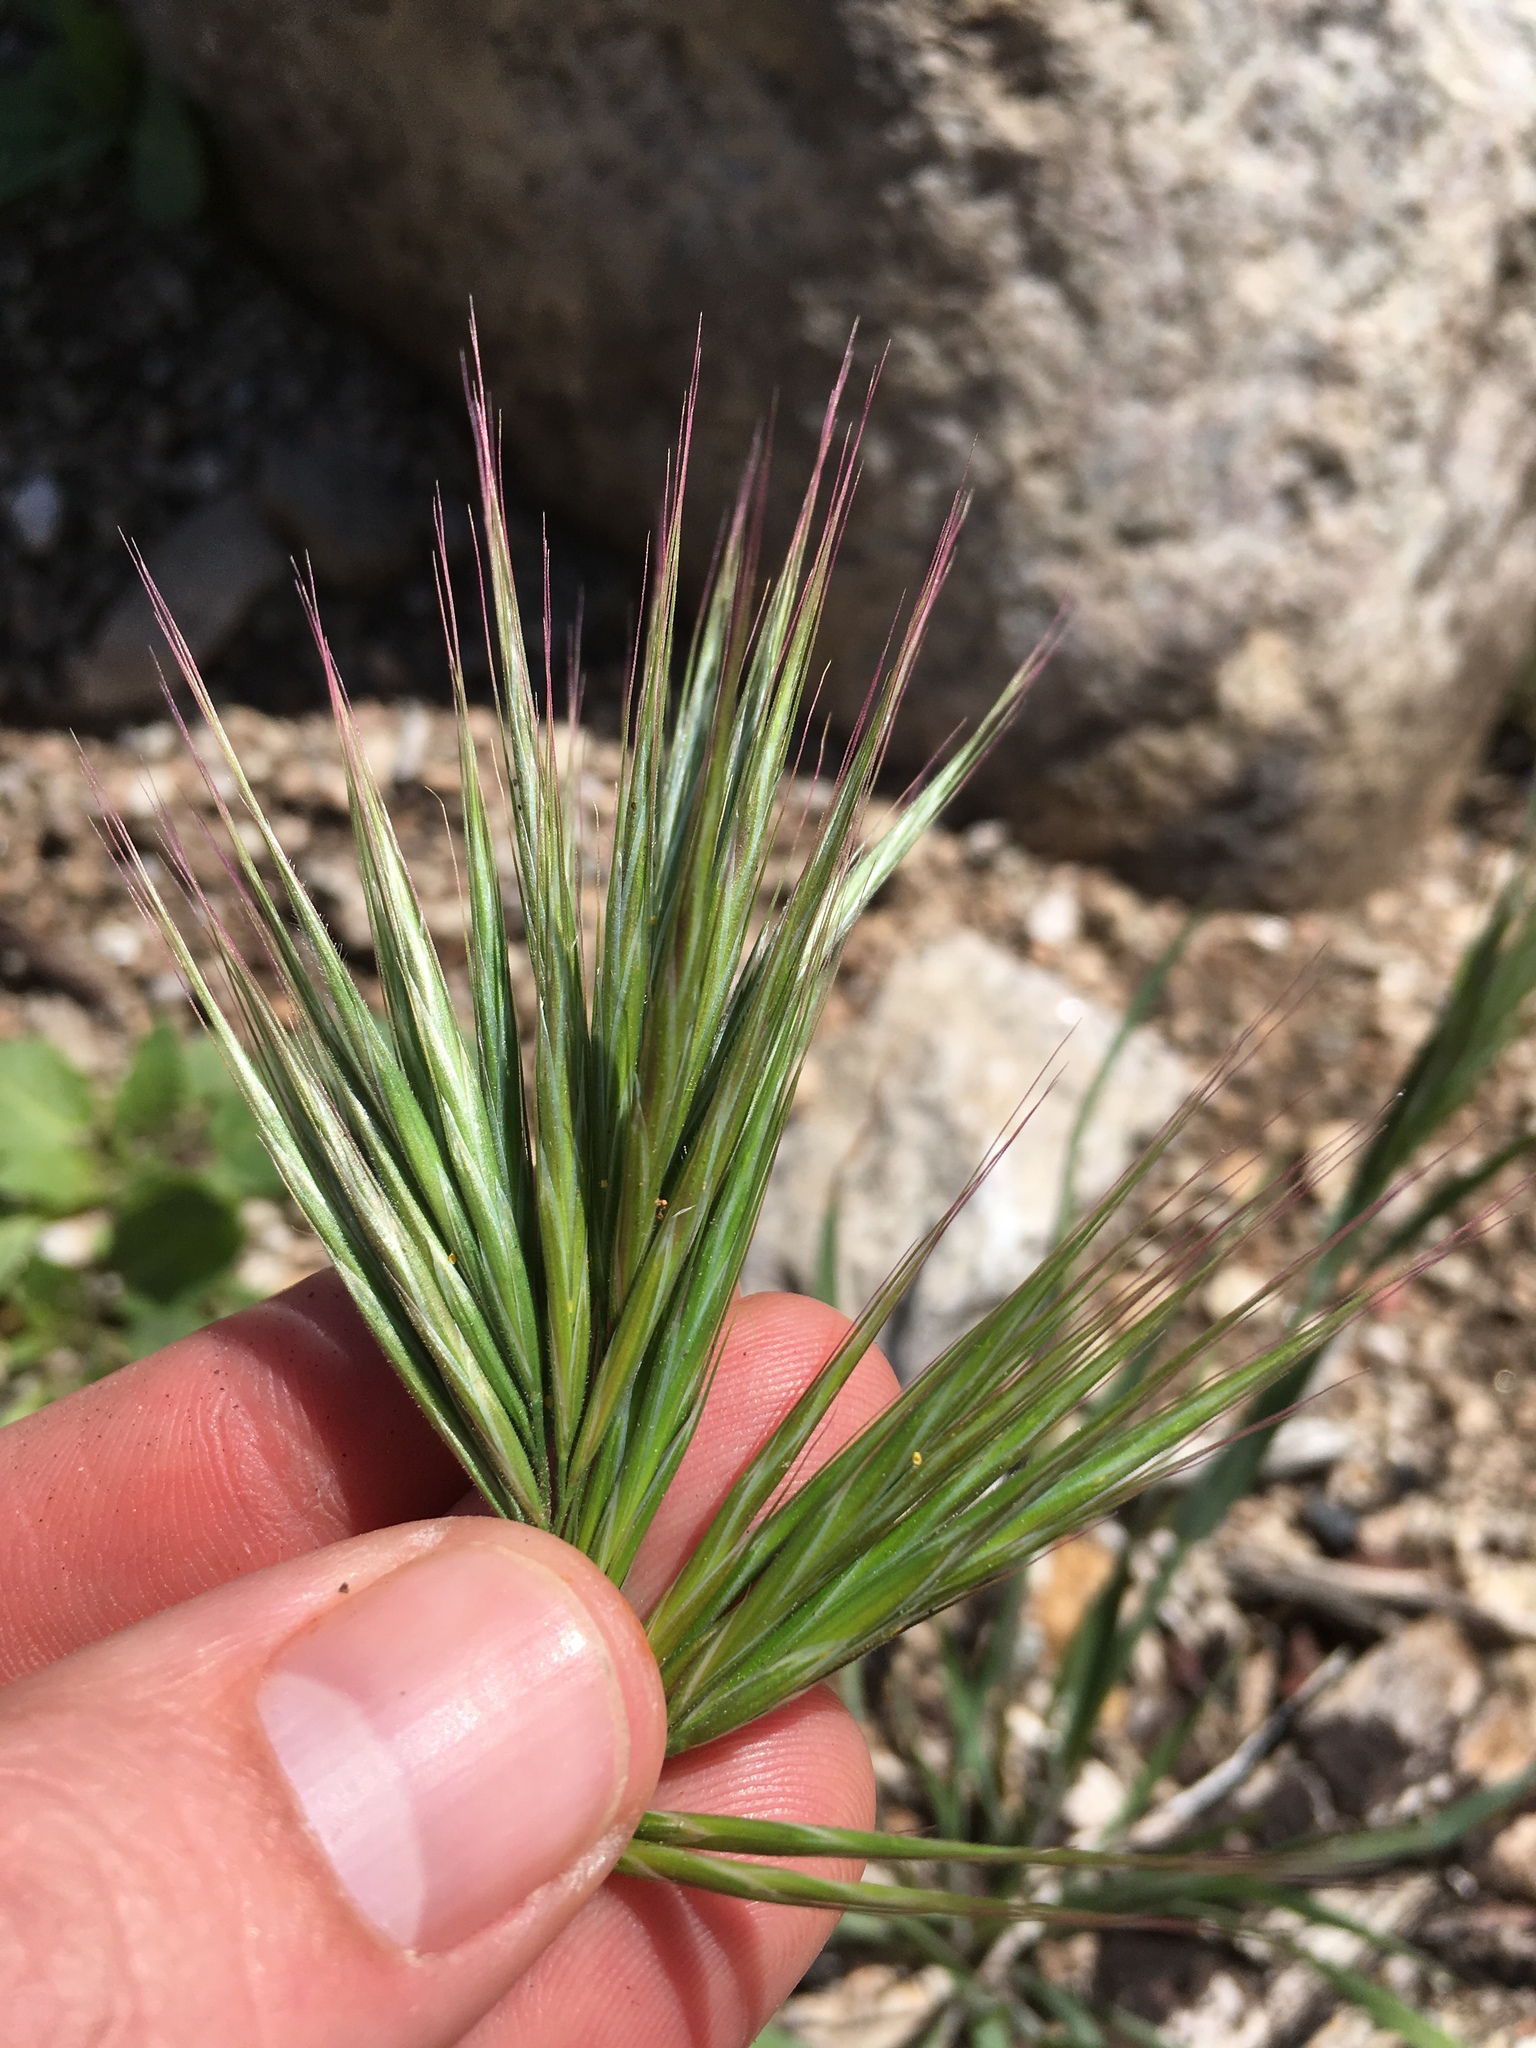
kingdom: Plantae
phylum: Tracheophyta
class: Liliopsida
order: Poales
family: Poaceae
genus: Bromus
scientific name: Bromus rubens
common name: Red brome
